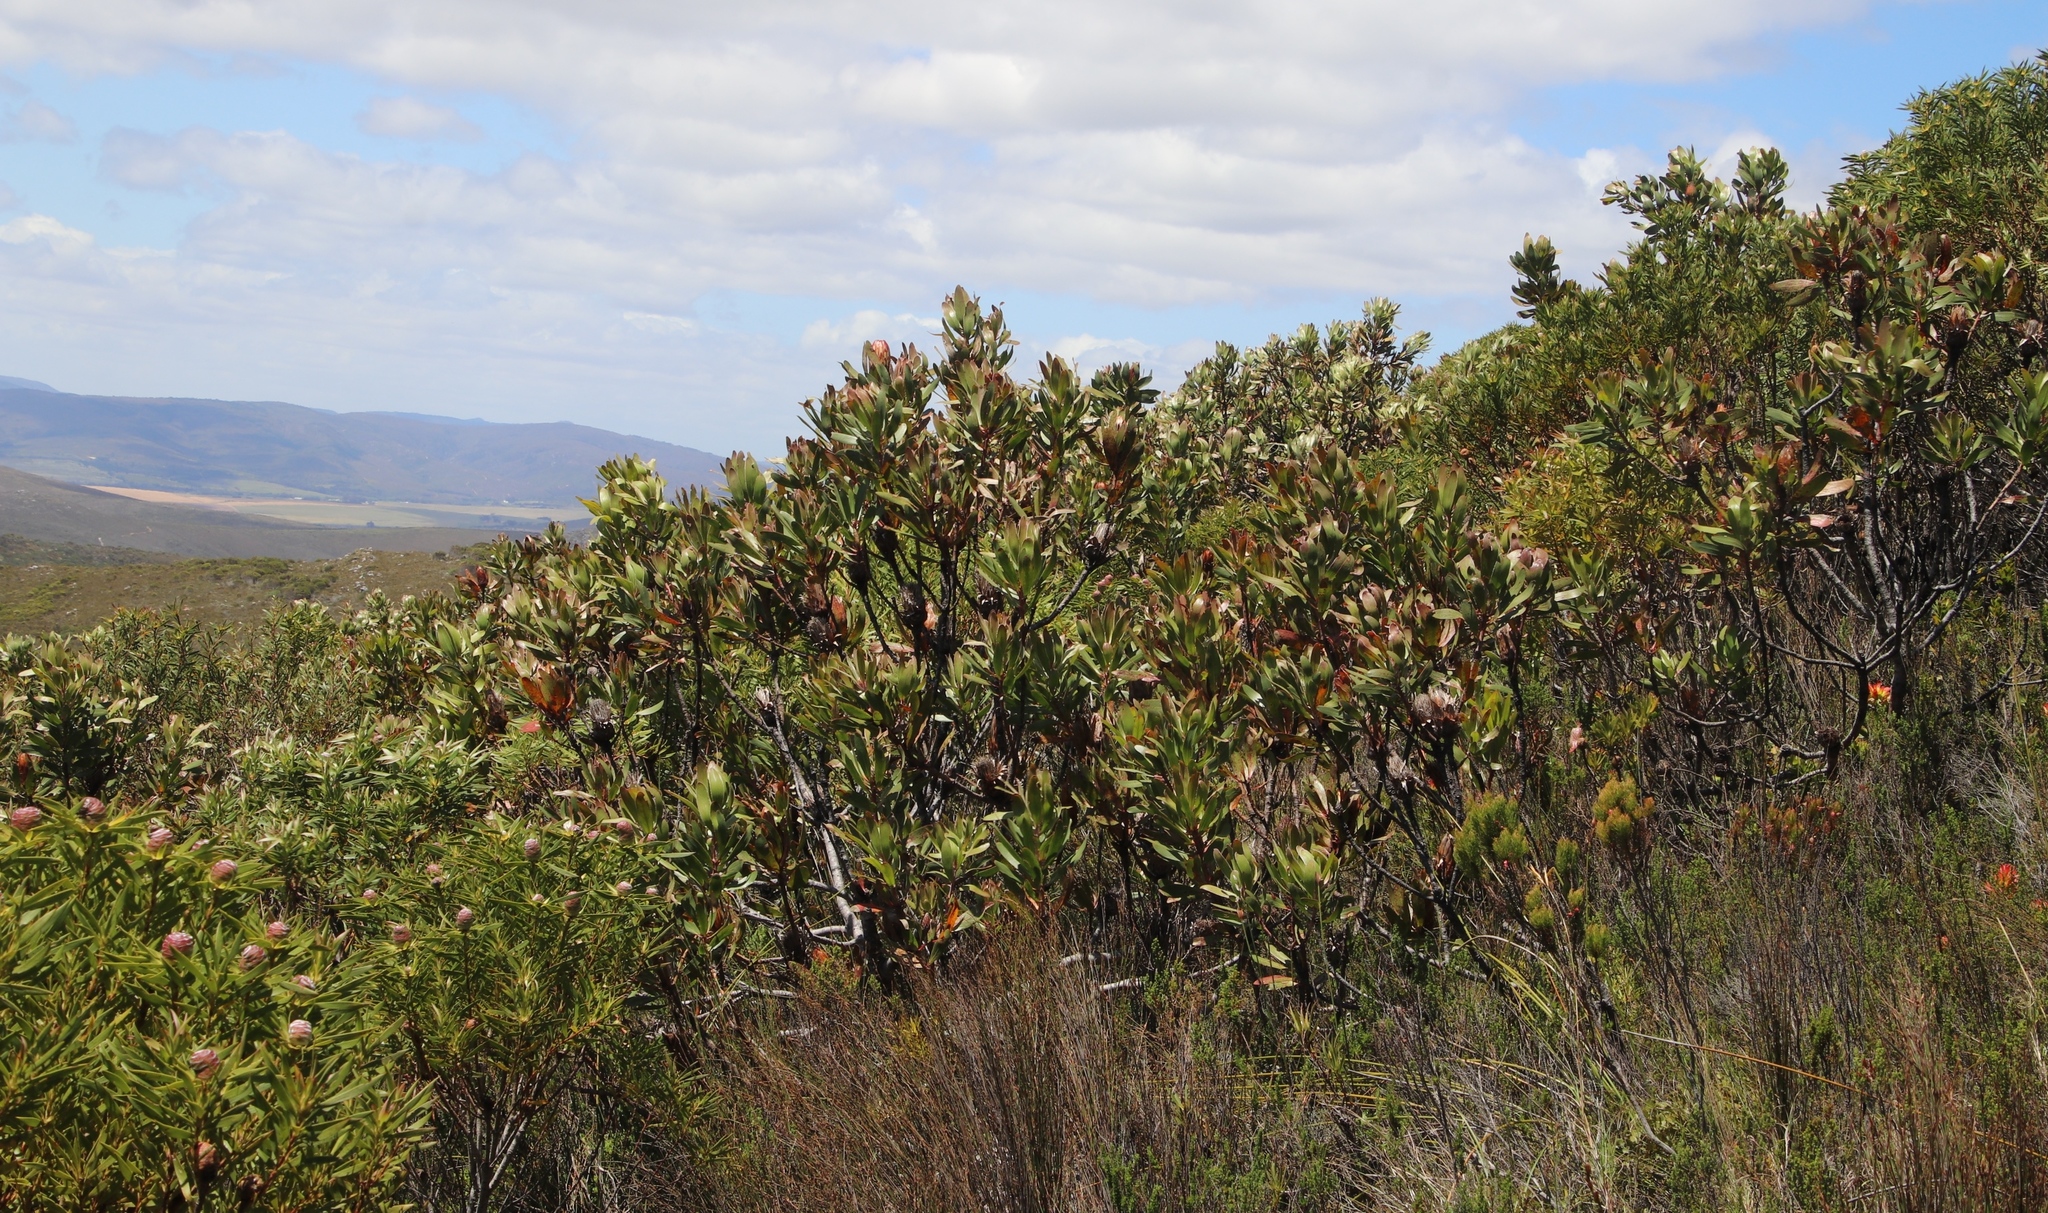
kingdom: Plantae
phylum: Tracheophyta
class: Magnoliopsida
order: Proteales
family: Proteaceae
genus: Protea
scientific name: Protea obtusifolia
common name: Bredasdorp sugarbush
